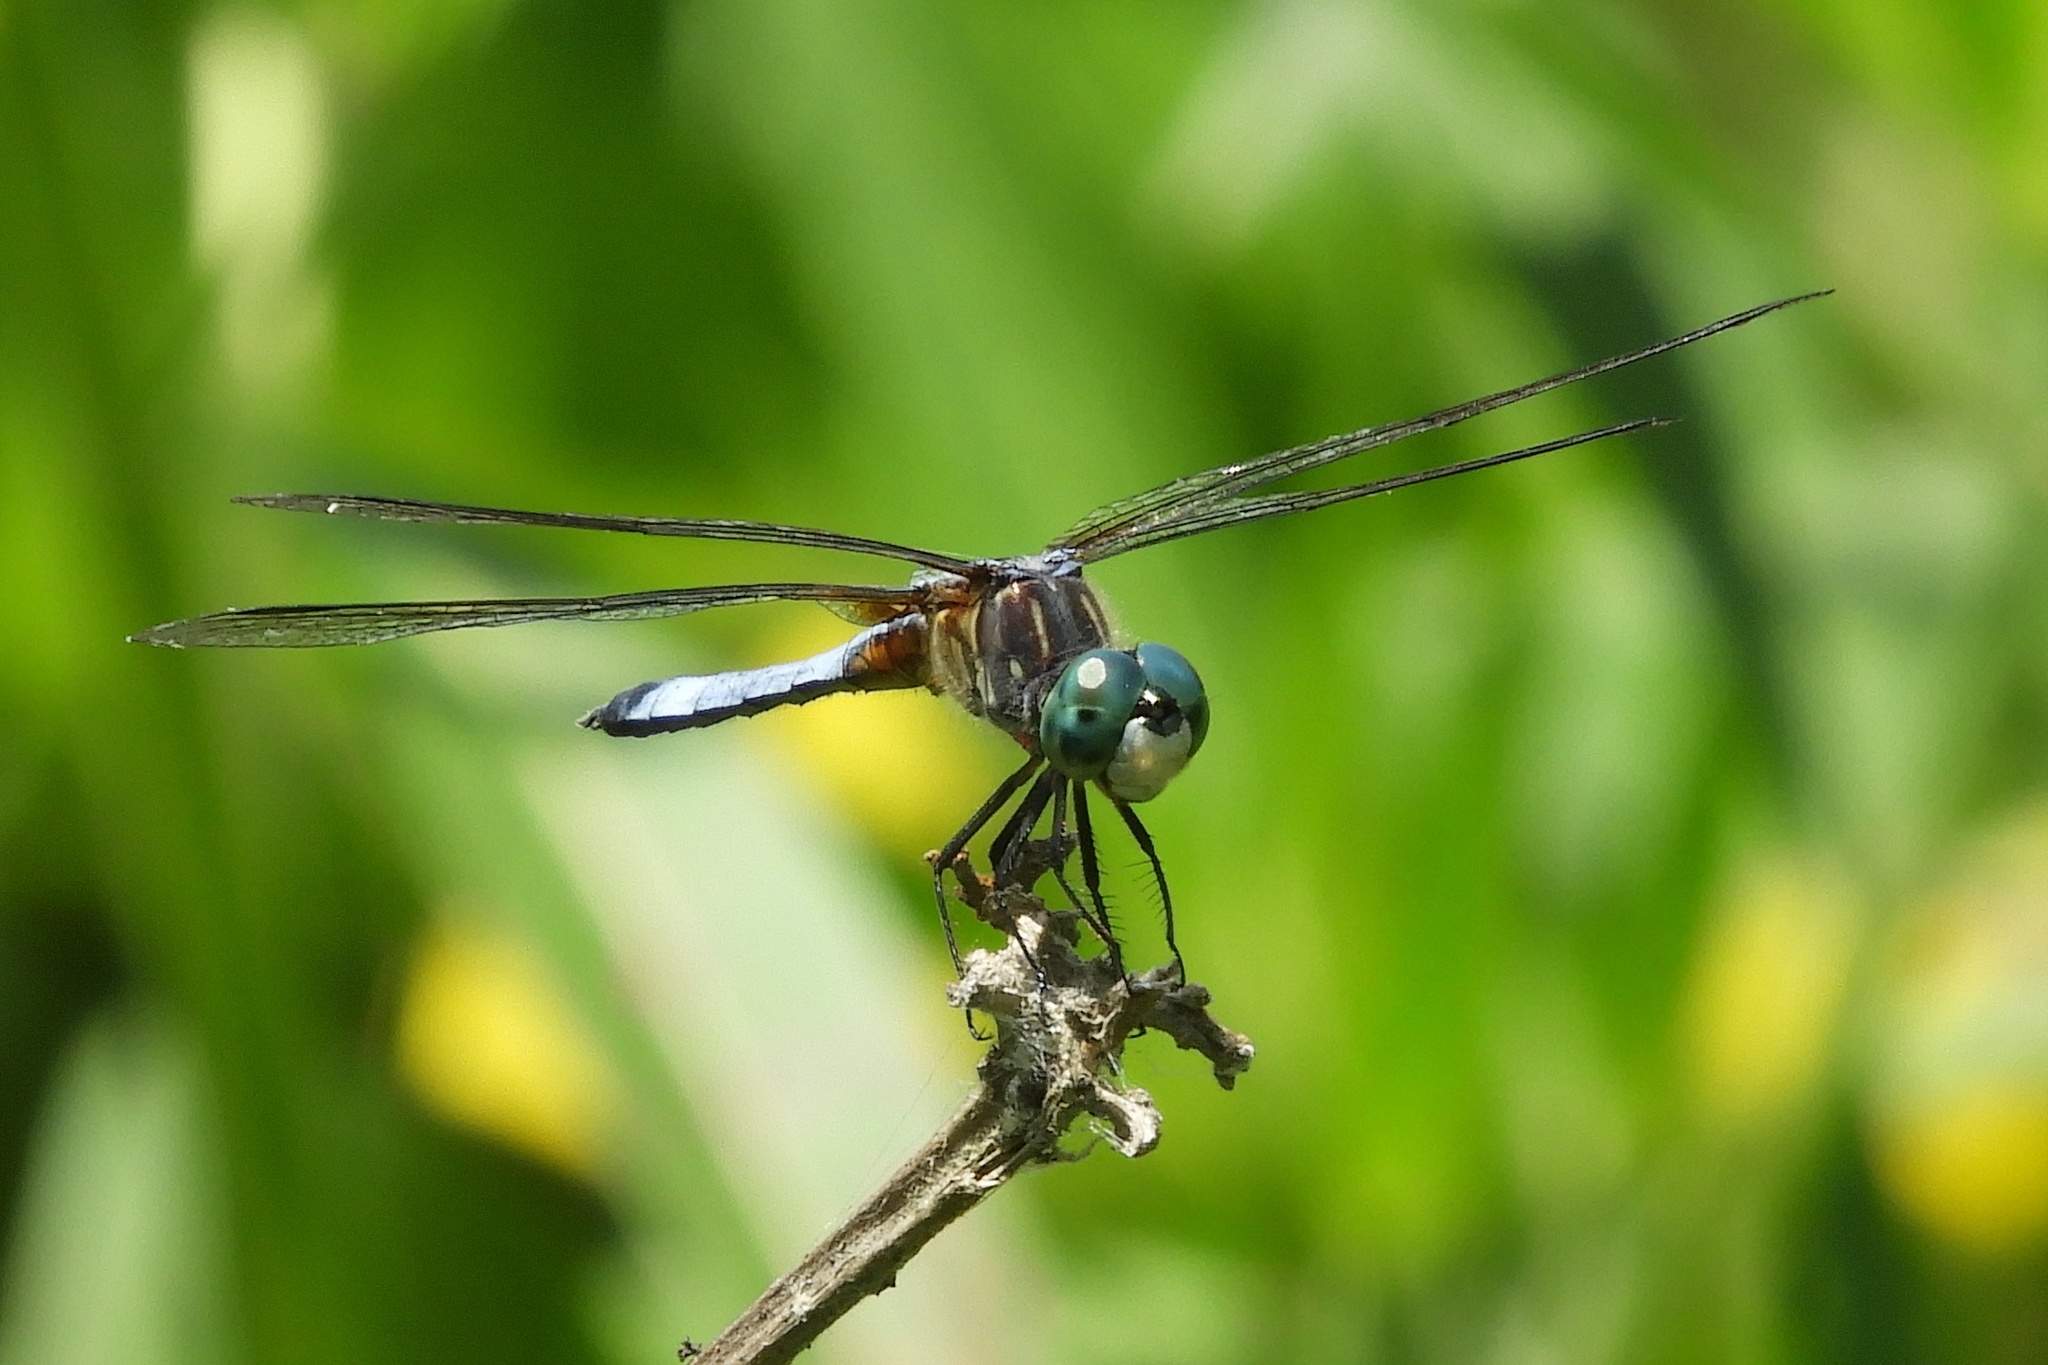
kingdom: Animalia
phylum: Arthropoda
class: Insecta
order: Odonata
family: Libellulidae
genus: Pachydiplax
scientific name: Pachydiplax longipennis
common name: Blue dasher
